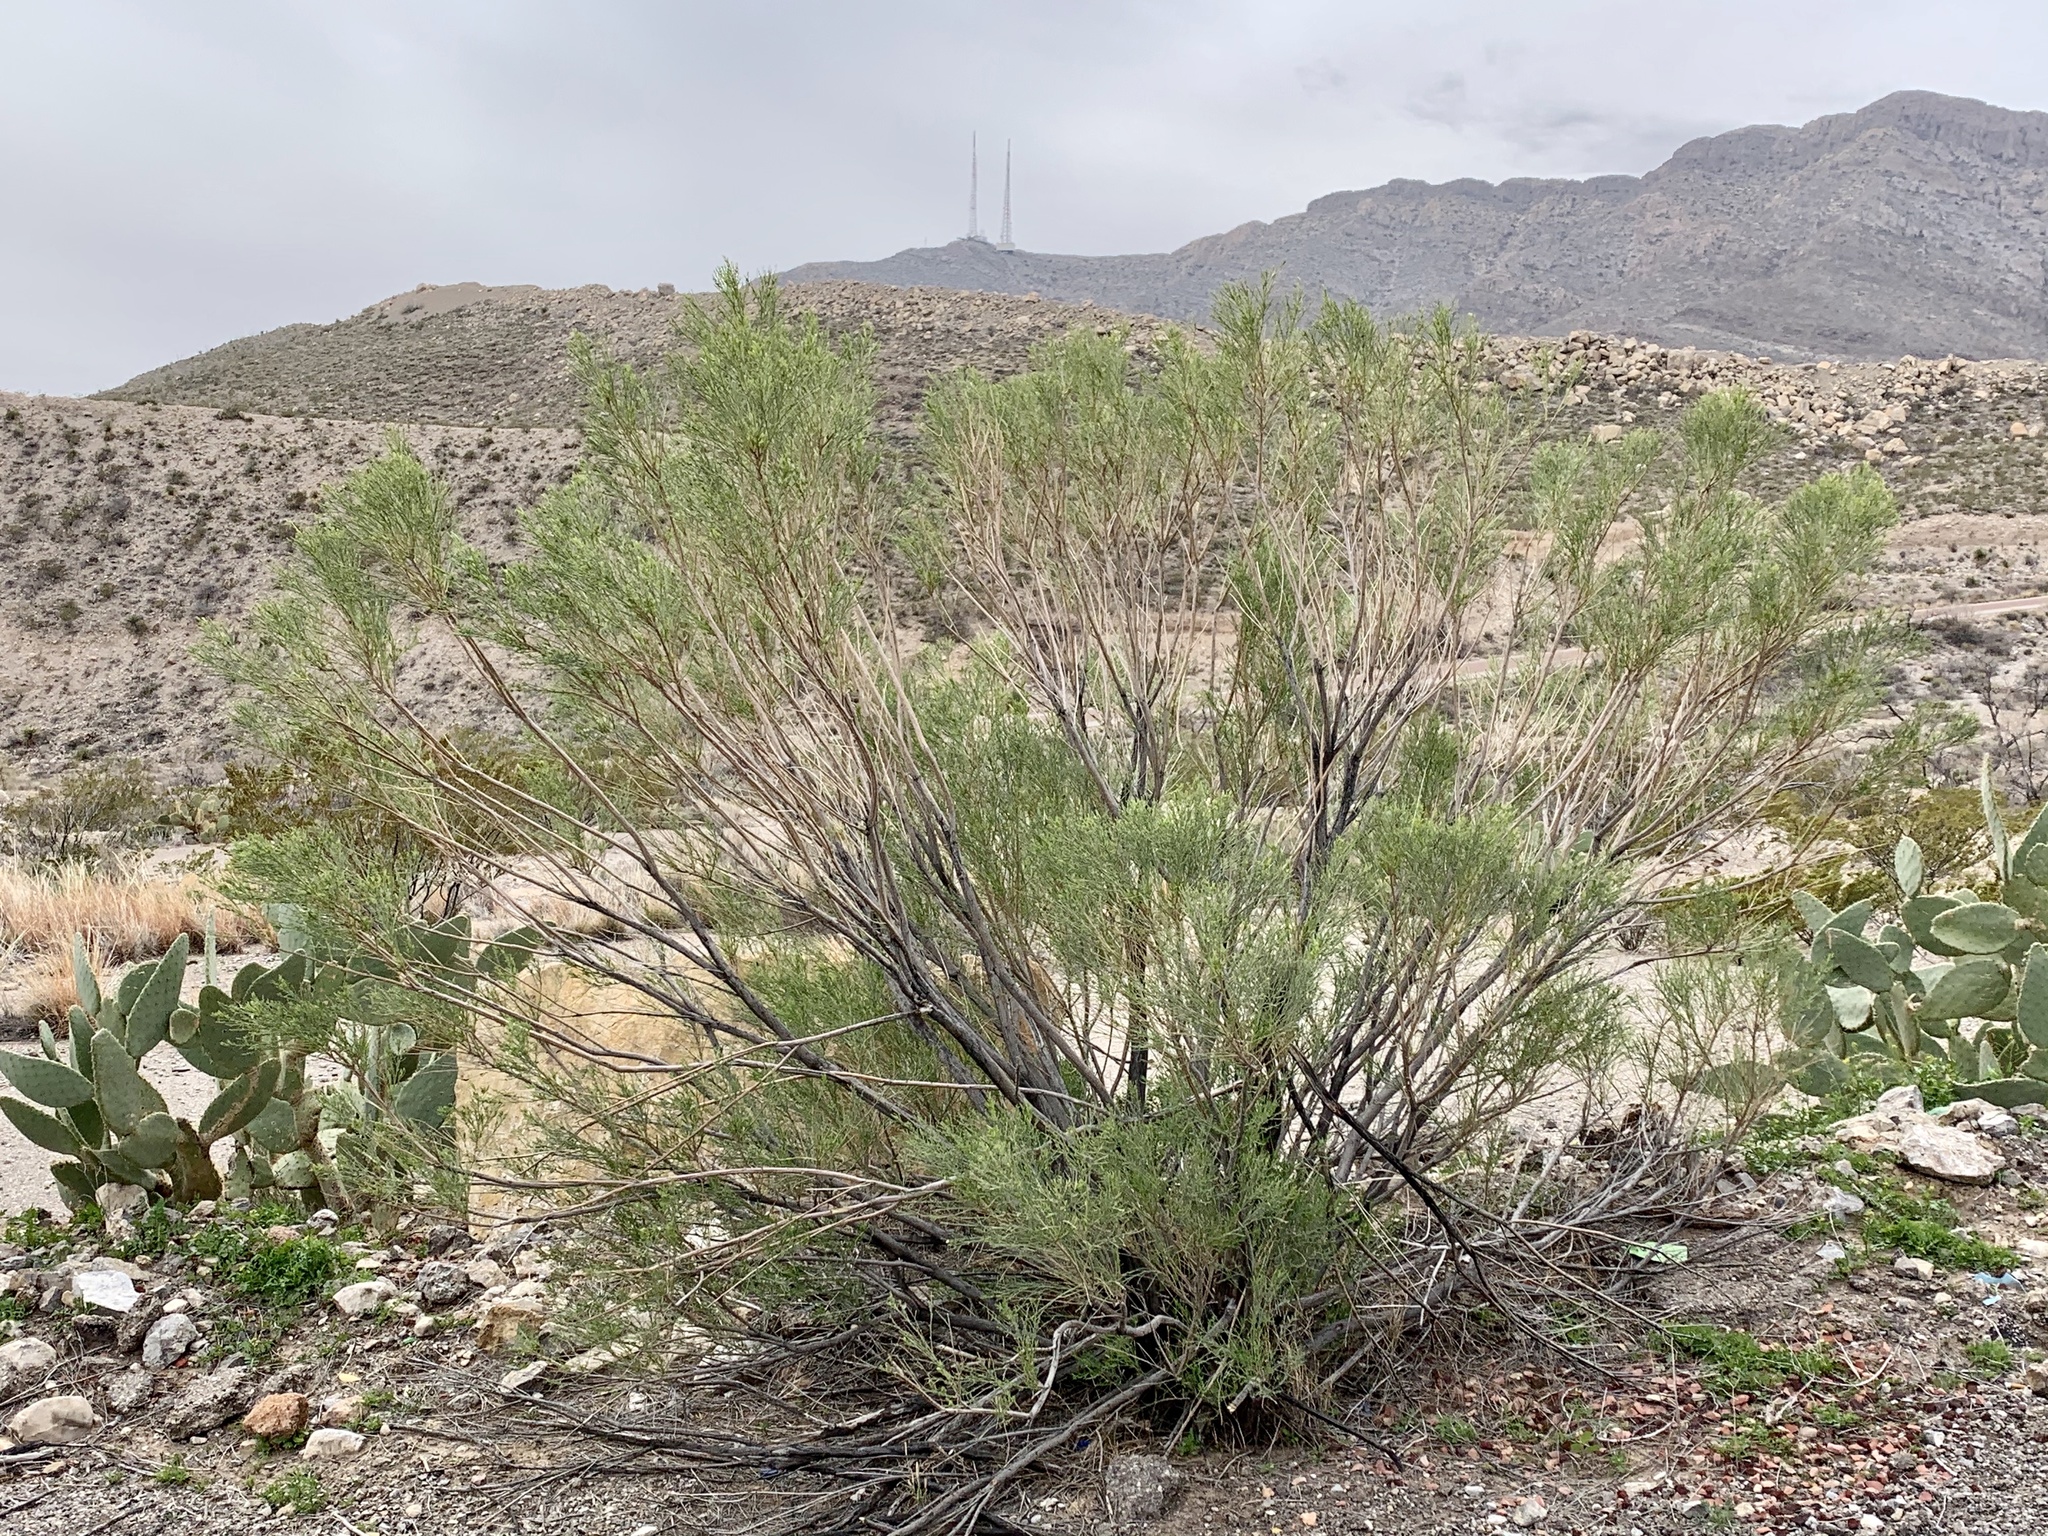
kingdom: Plantae
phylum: Tracheophyta
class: Magnoliopsida
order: Asterales
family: Asteraceae
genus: Baccharis
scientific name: Baccharis sarothroides
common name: Desert-broom
